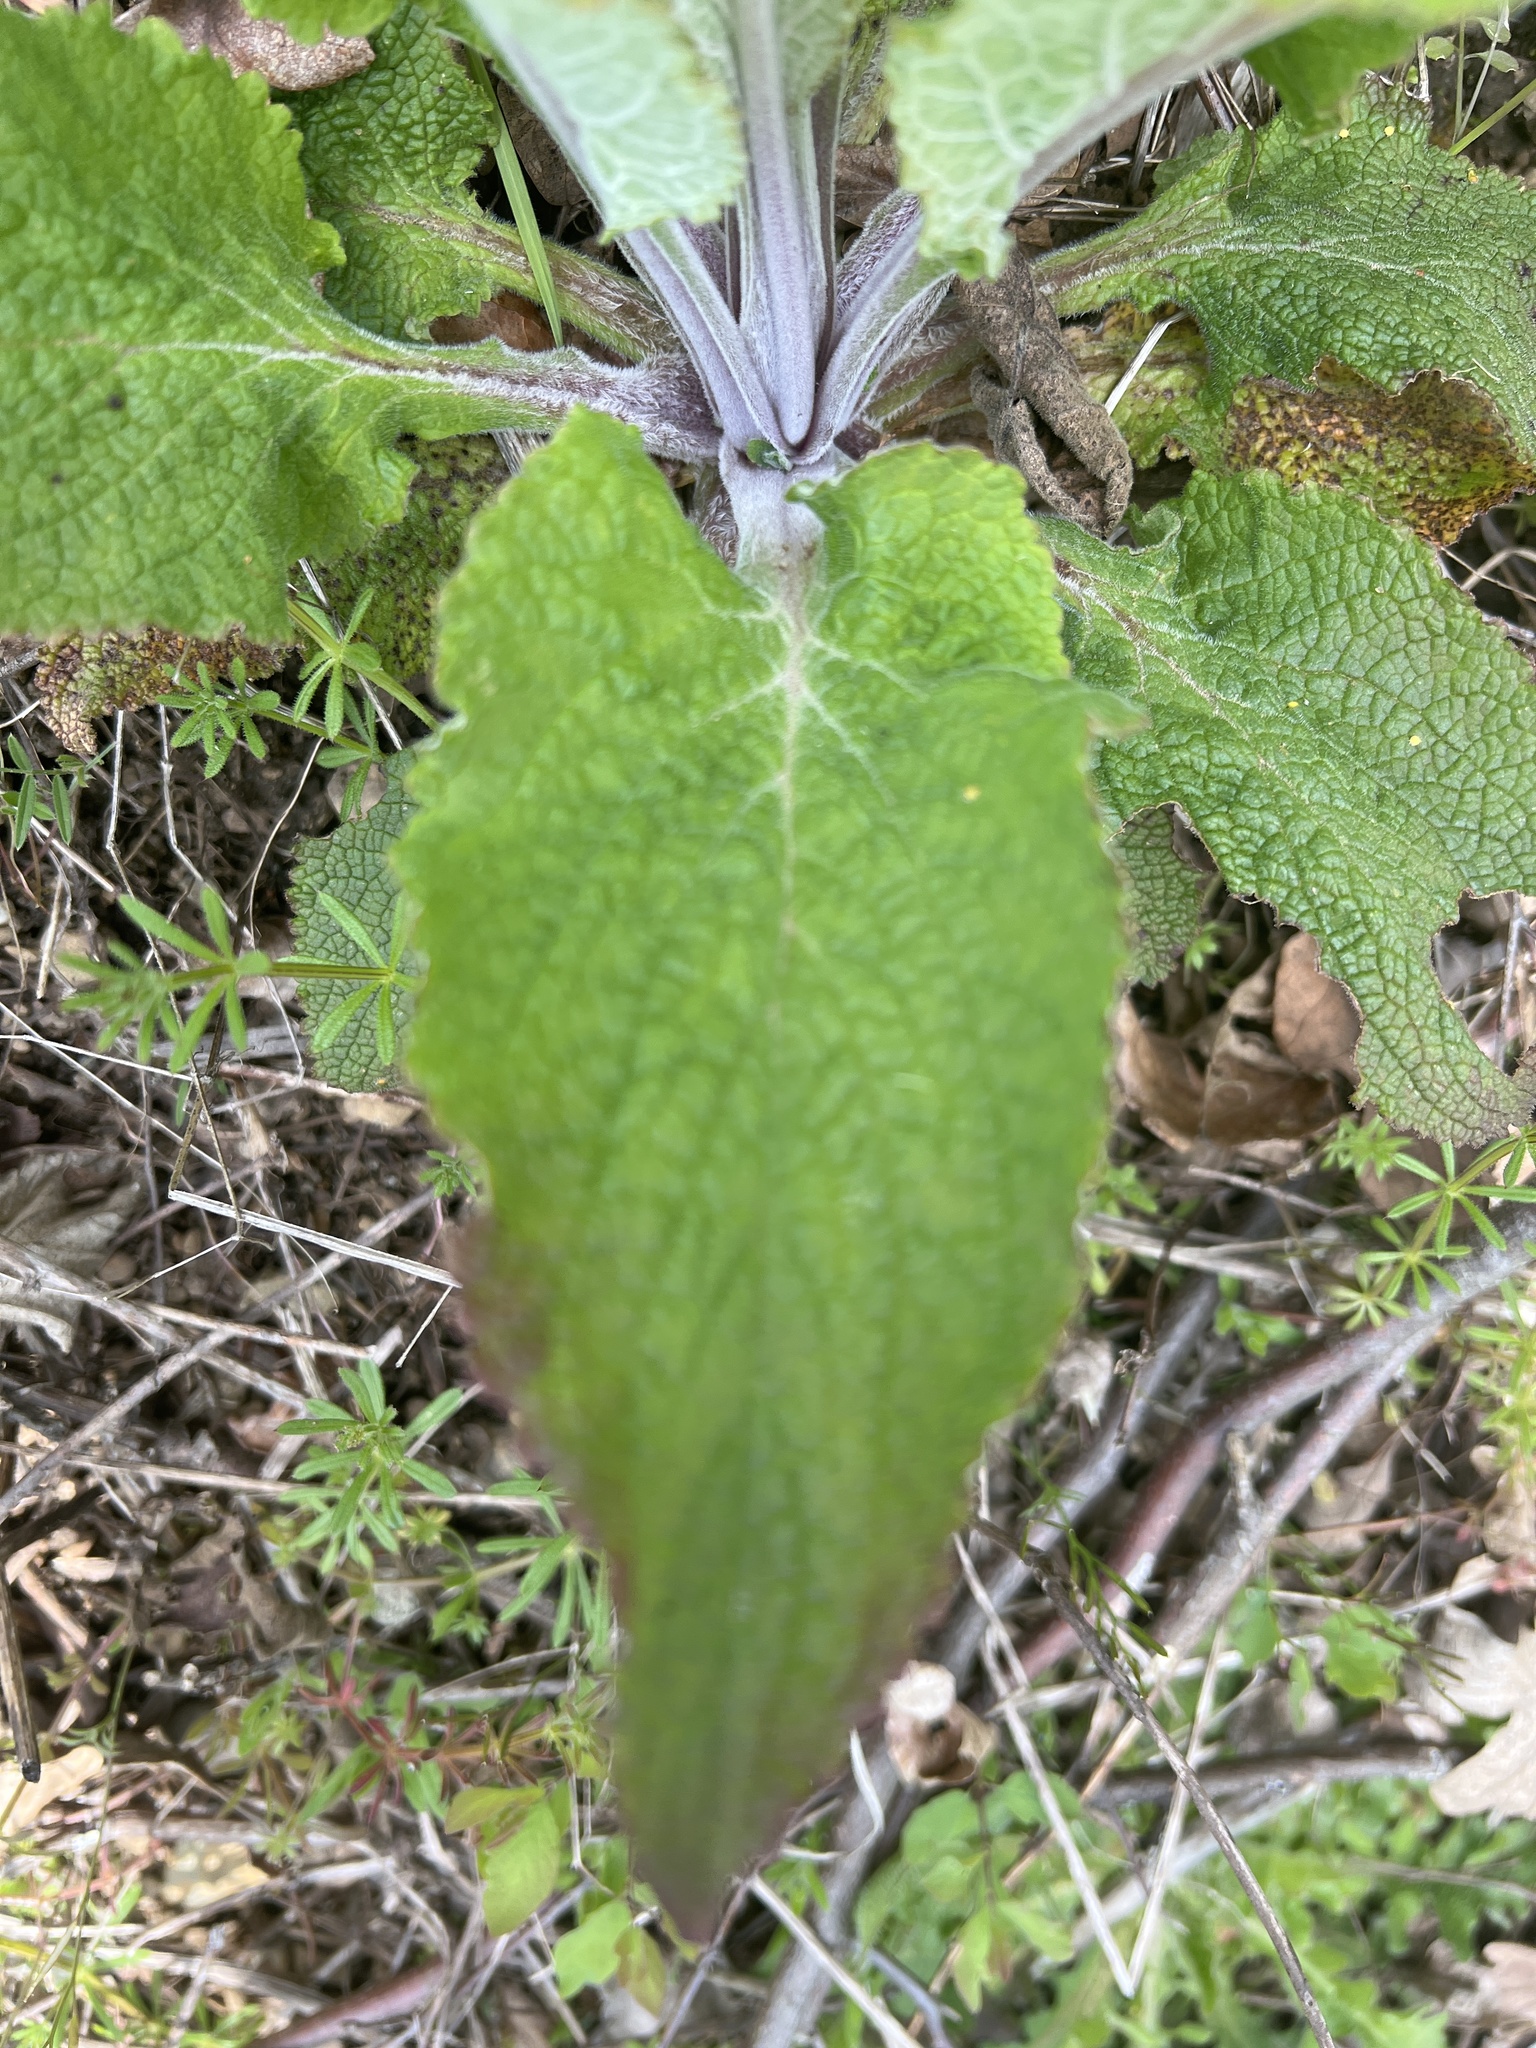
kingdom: Plantae
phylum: Tracheophyta
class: Magnoliopsida
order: Lamiales
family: Plantaginaceae
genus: Digitalis
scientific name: Digitalis purpurea
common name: Foxglove
